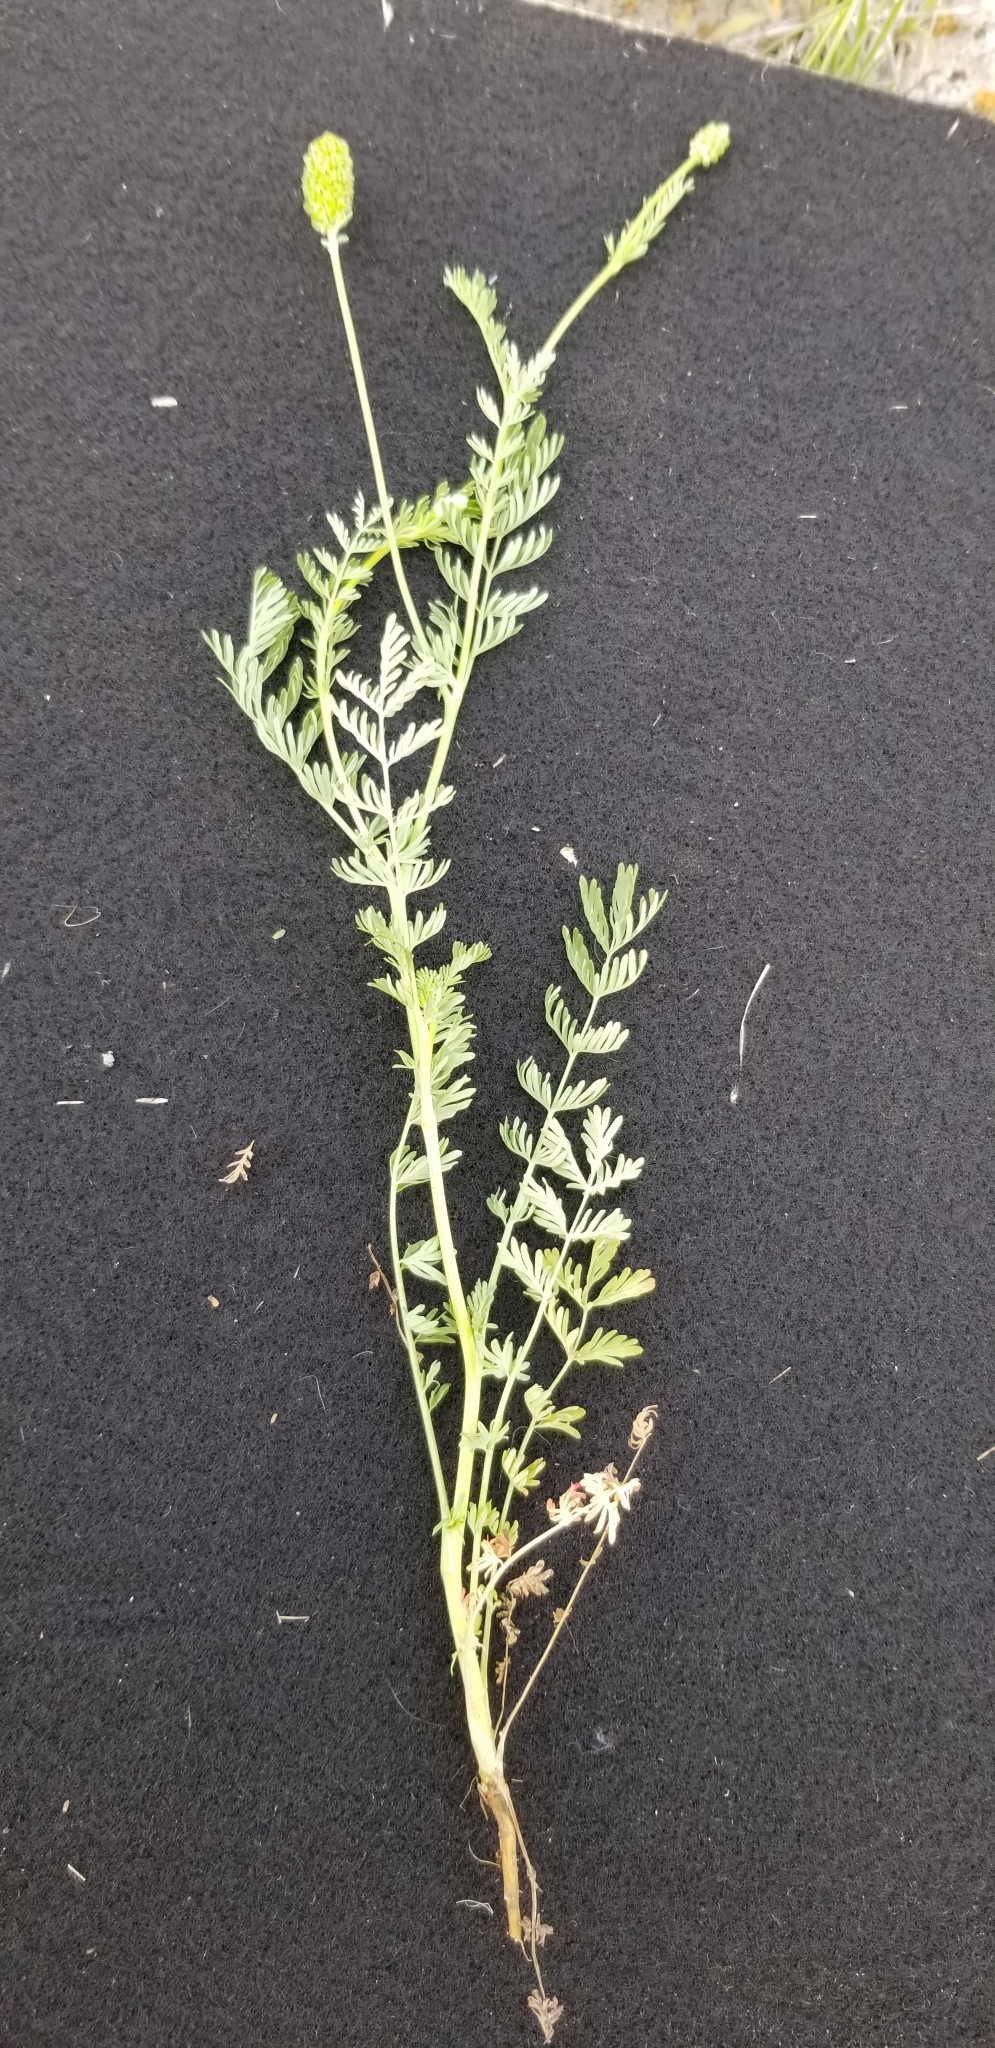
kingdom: Plantae
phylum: Tracheophyta
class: Magnoliopsida
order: Rosales
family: Rosaceae
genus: Poteridium
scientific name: Poteridium annuum
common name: Annual burnet
